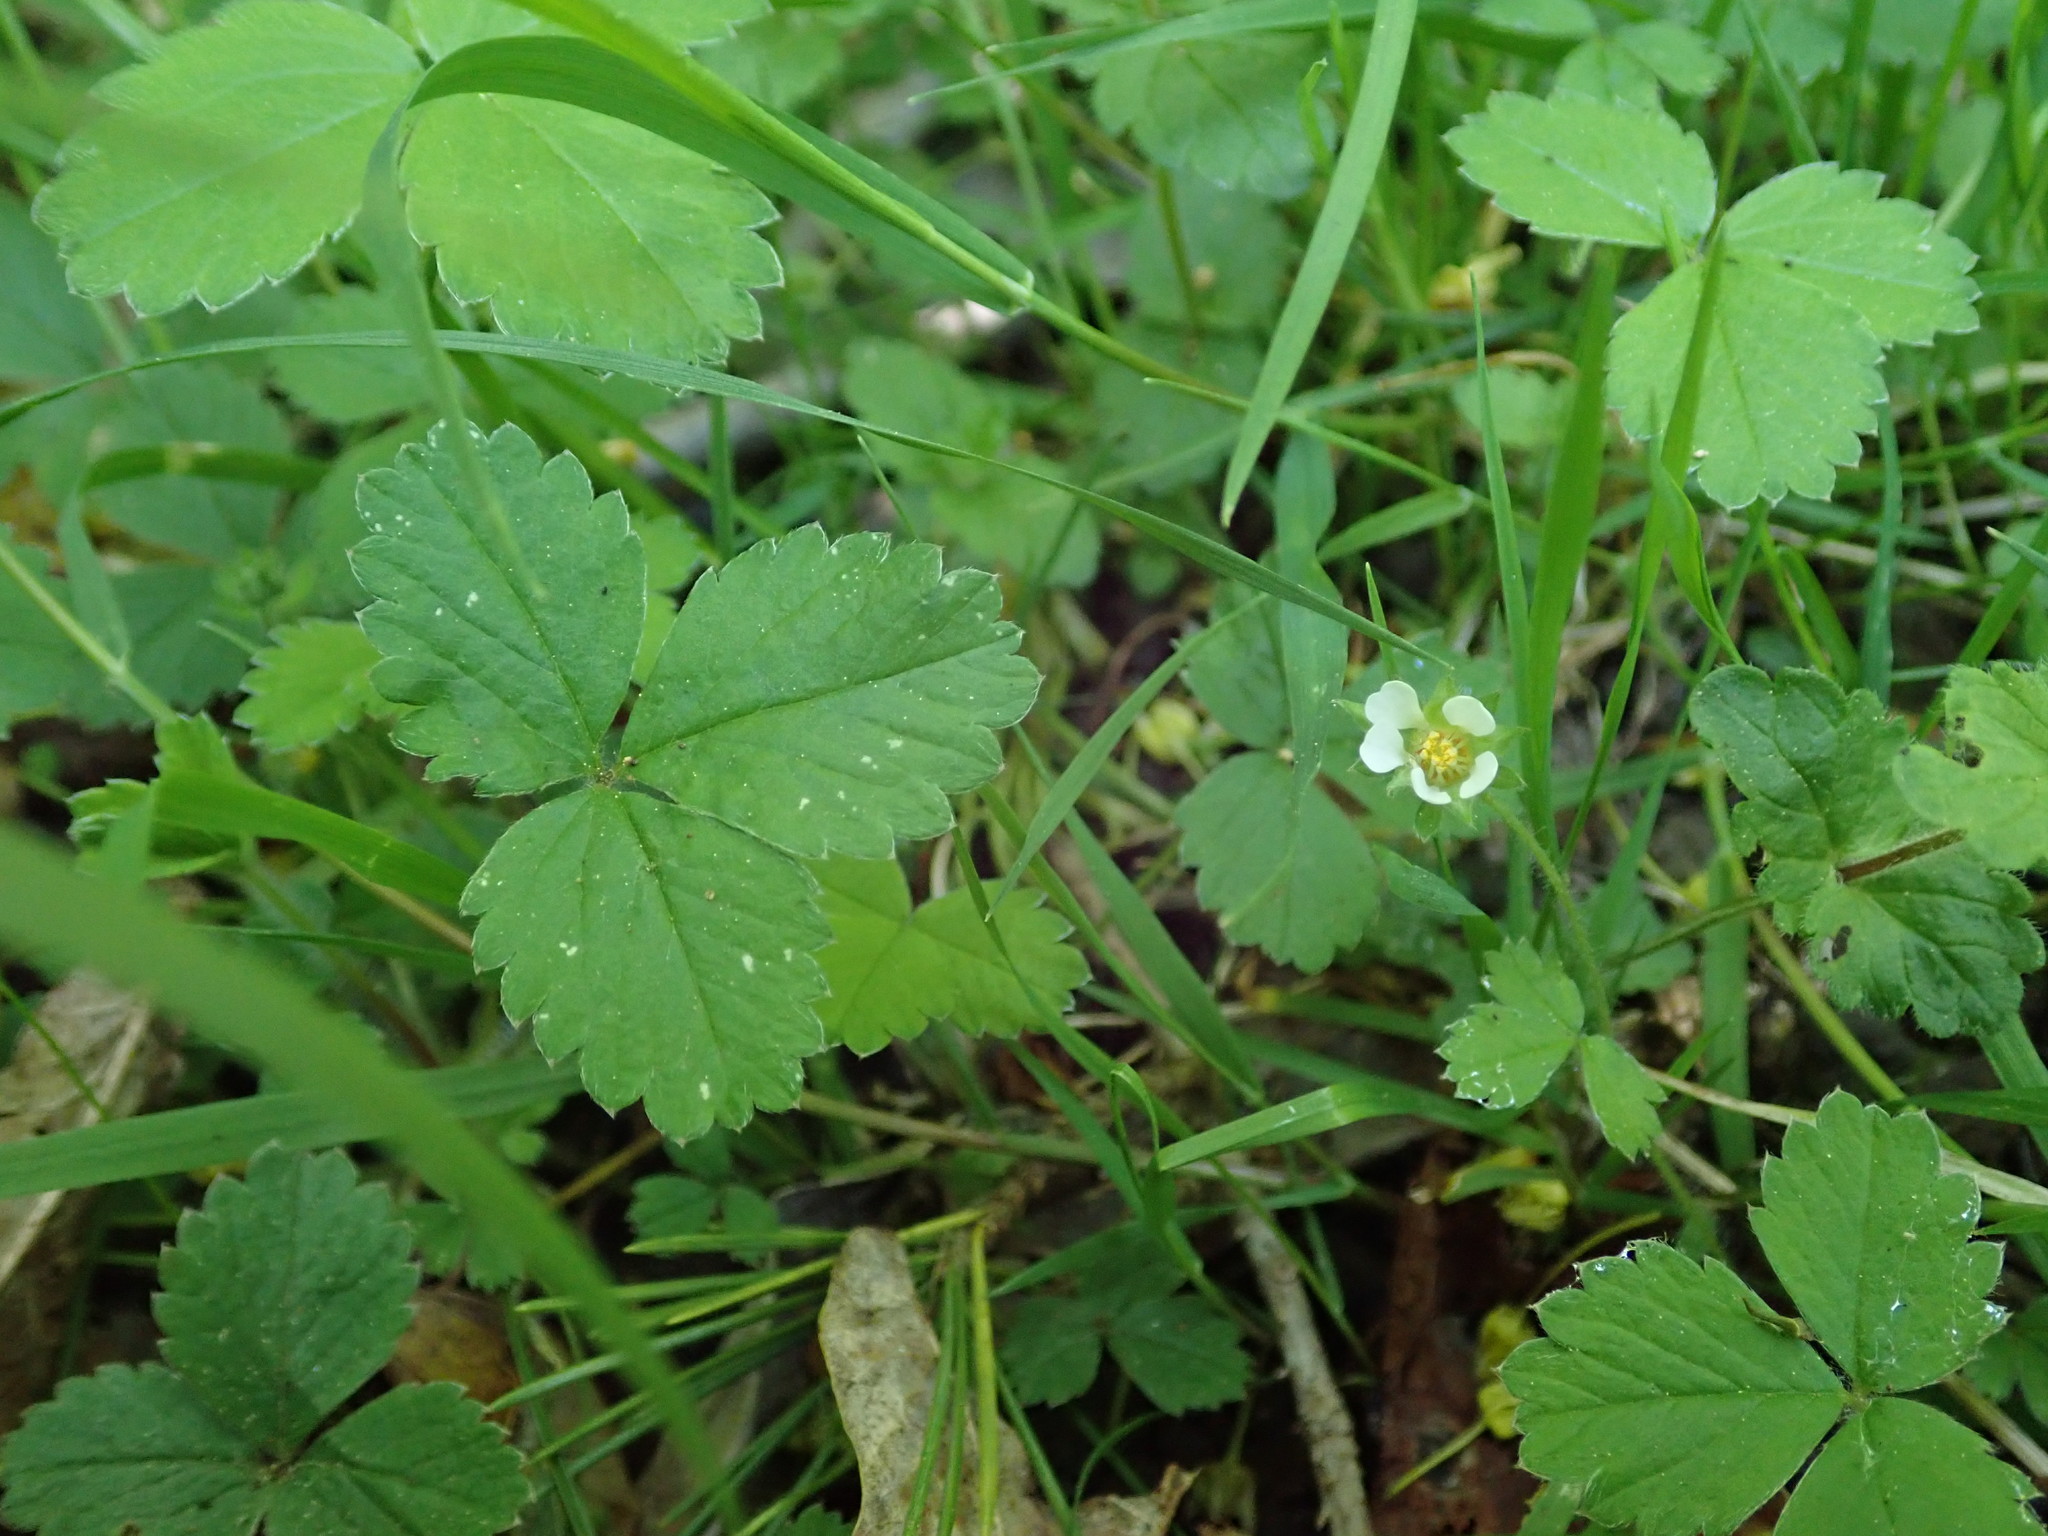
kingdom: Plantae
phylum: Tracheophyta
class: Magnoliopsida
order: Rosales
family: Rosaceae
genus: Potentilla
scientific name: Potentilla sterilis
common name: Barren strawberry
